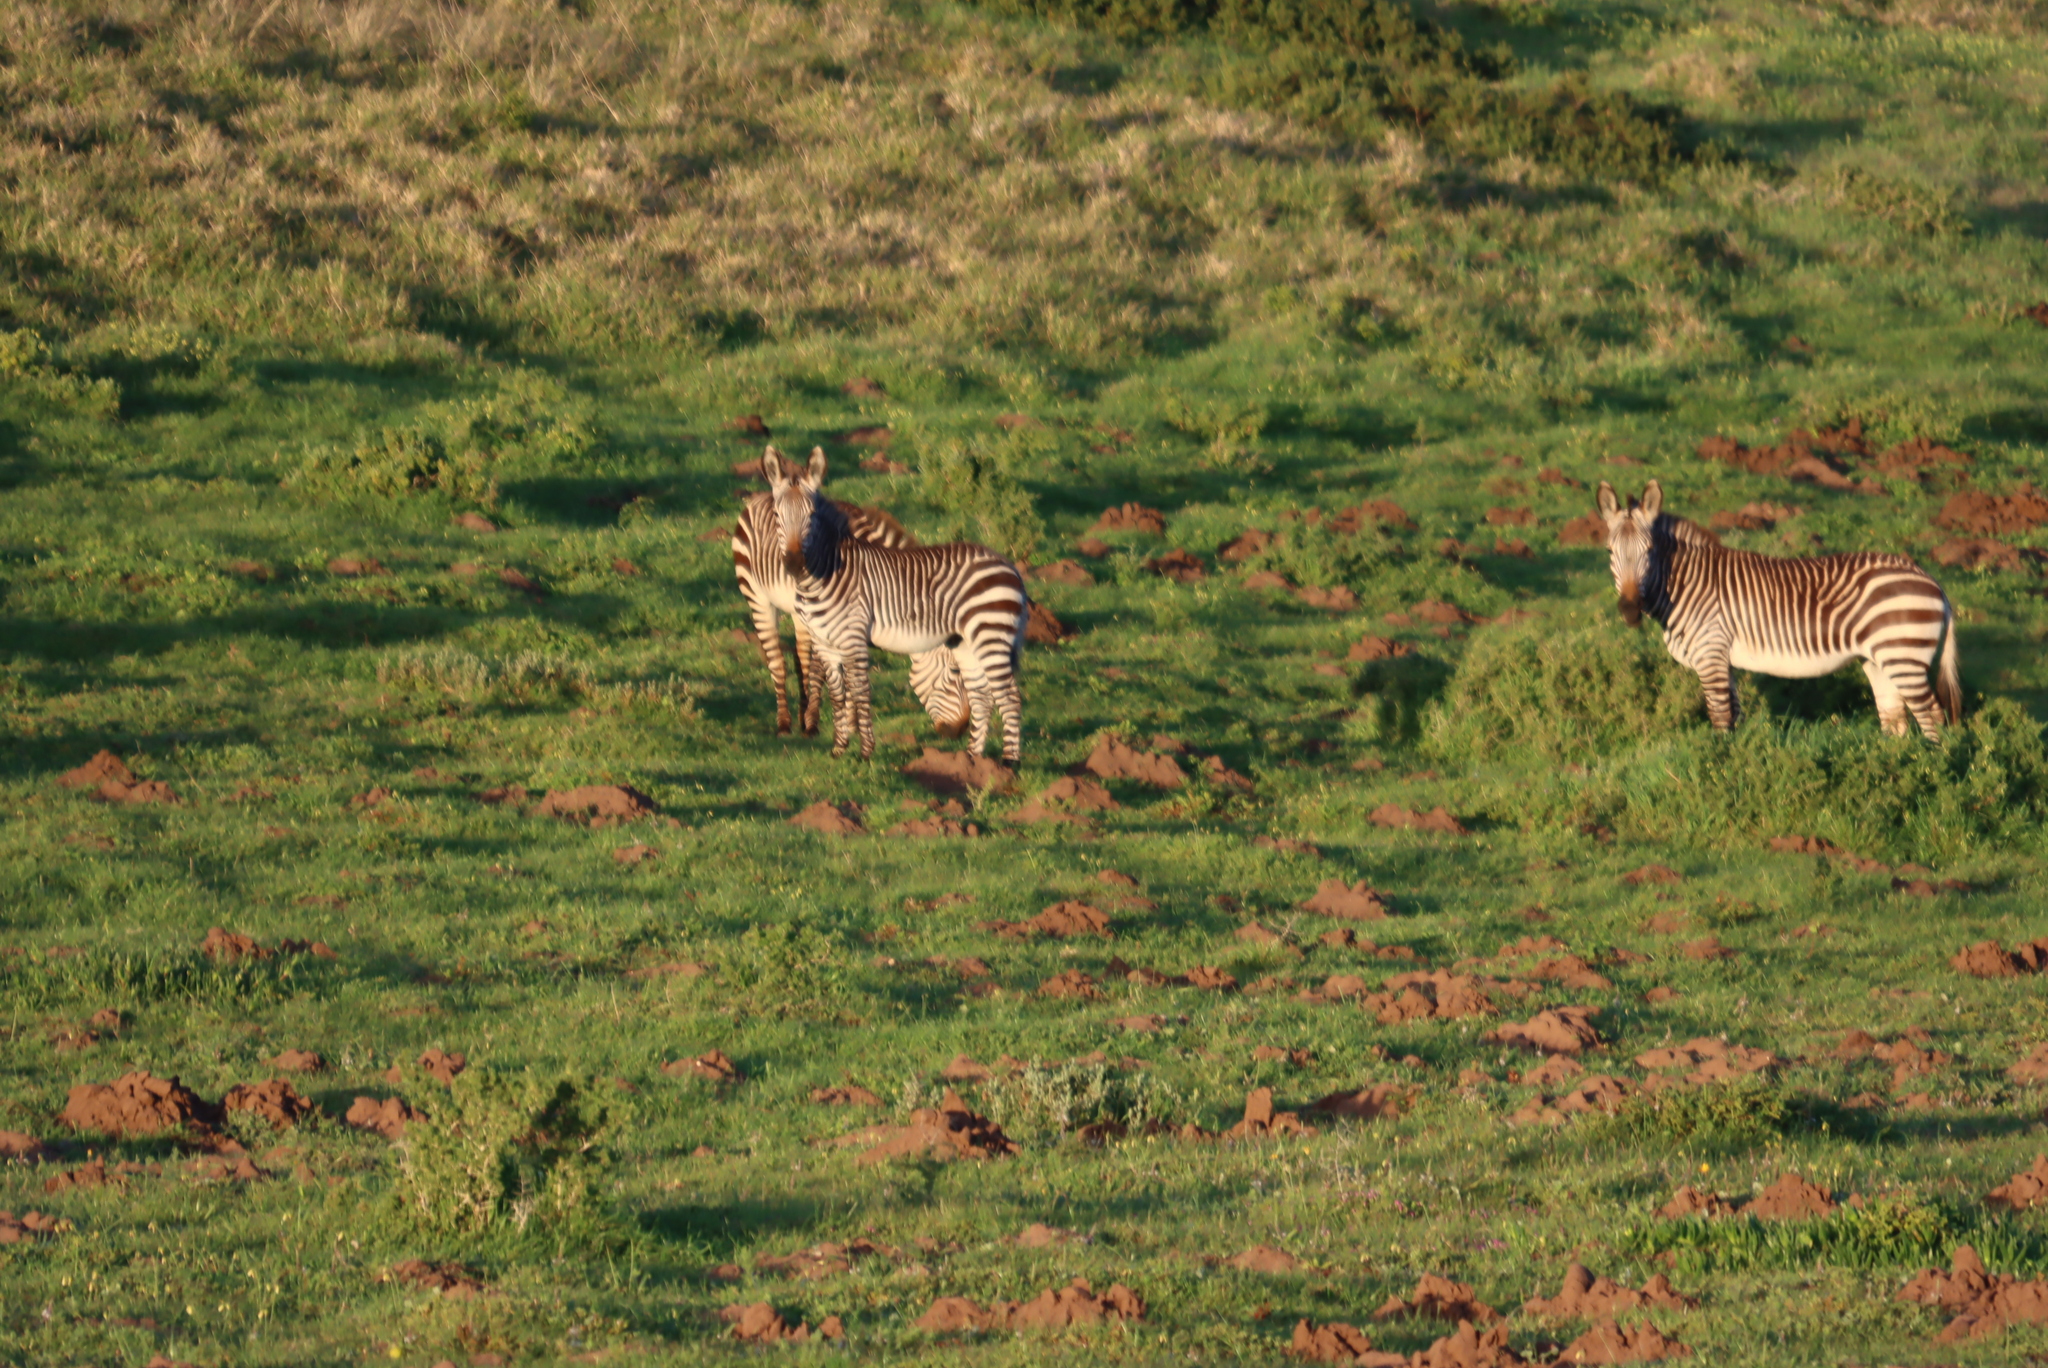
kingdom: Animalia
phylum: Chordata
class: Mammalia
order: Perissodactyla
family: Equidae
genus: Equus
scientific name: Equus zebra
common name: Mountain zebra
